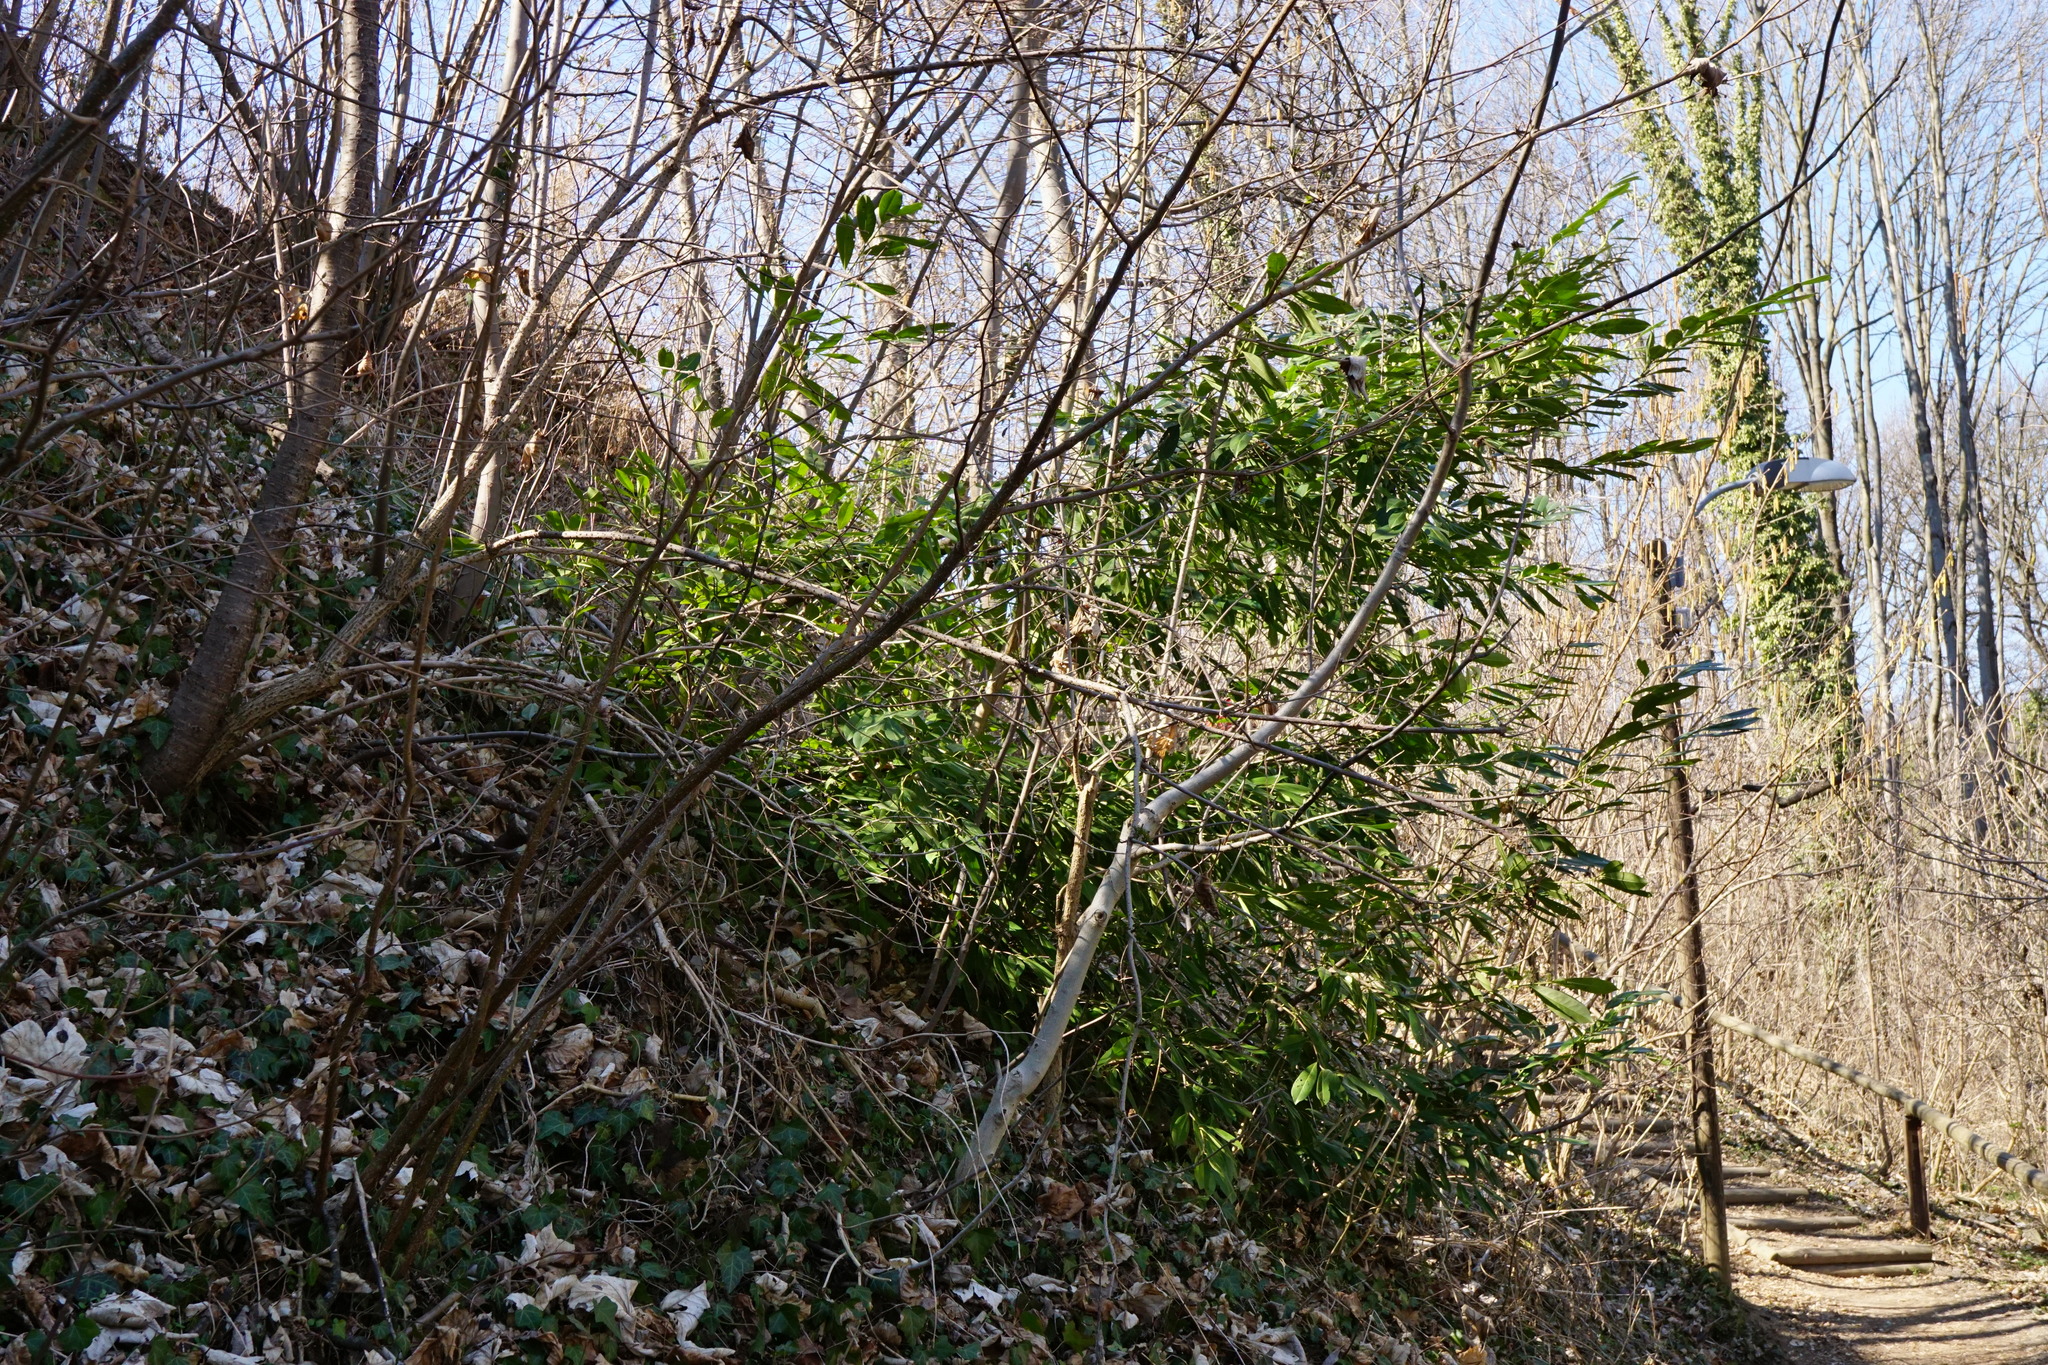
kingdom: Plantae
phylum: Tracheophyta
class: Magnoliopsida
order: Rosales
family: Rosaceae
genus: Prunus
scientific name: Prunus laurocerasus
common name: Cherry laurel
